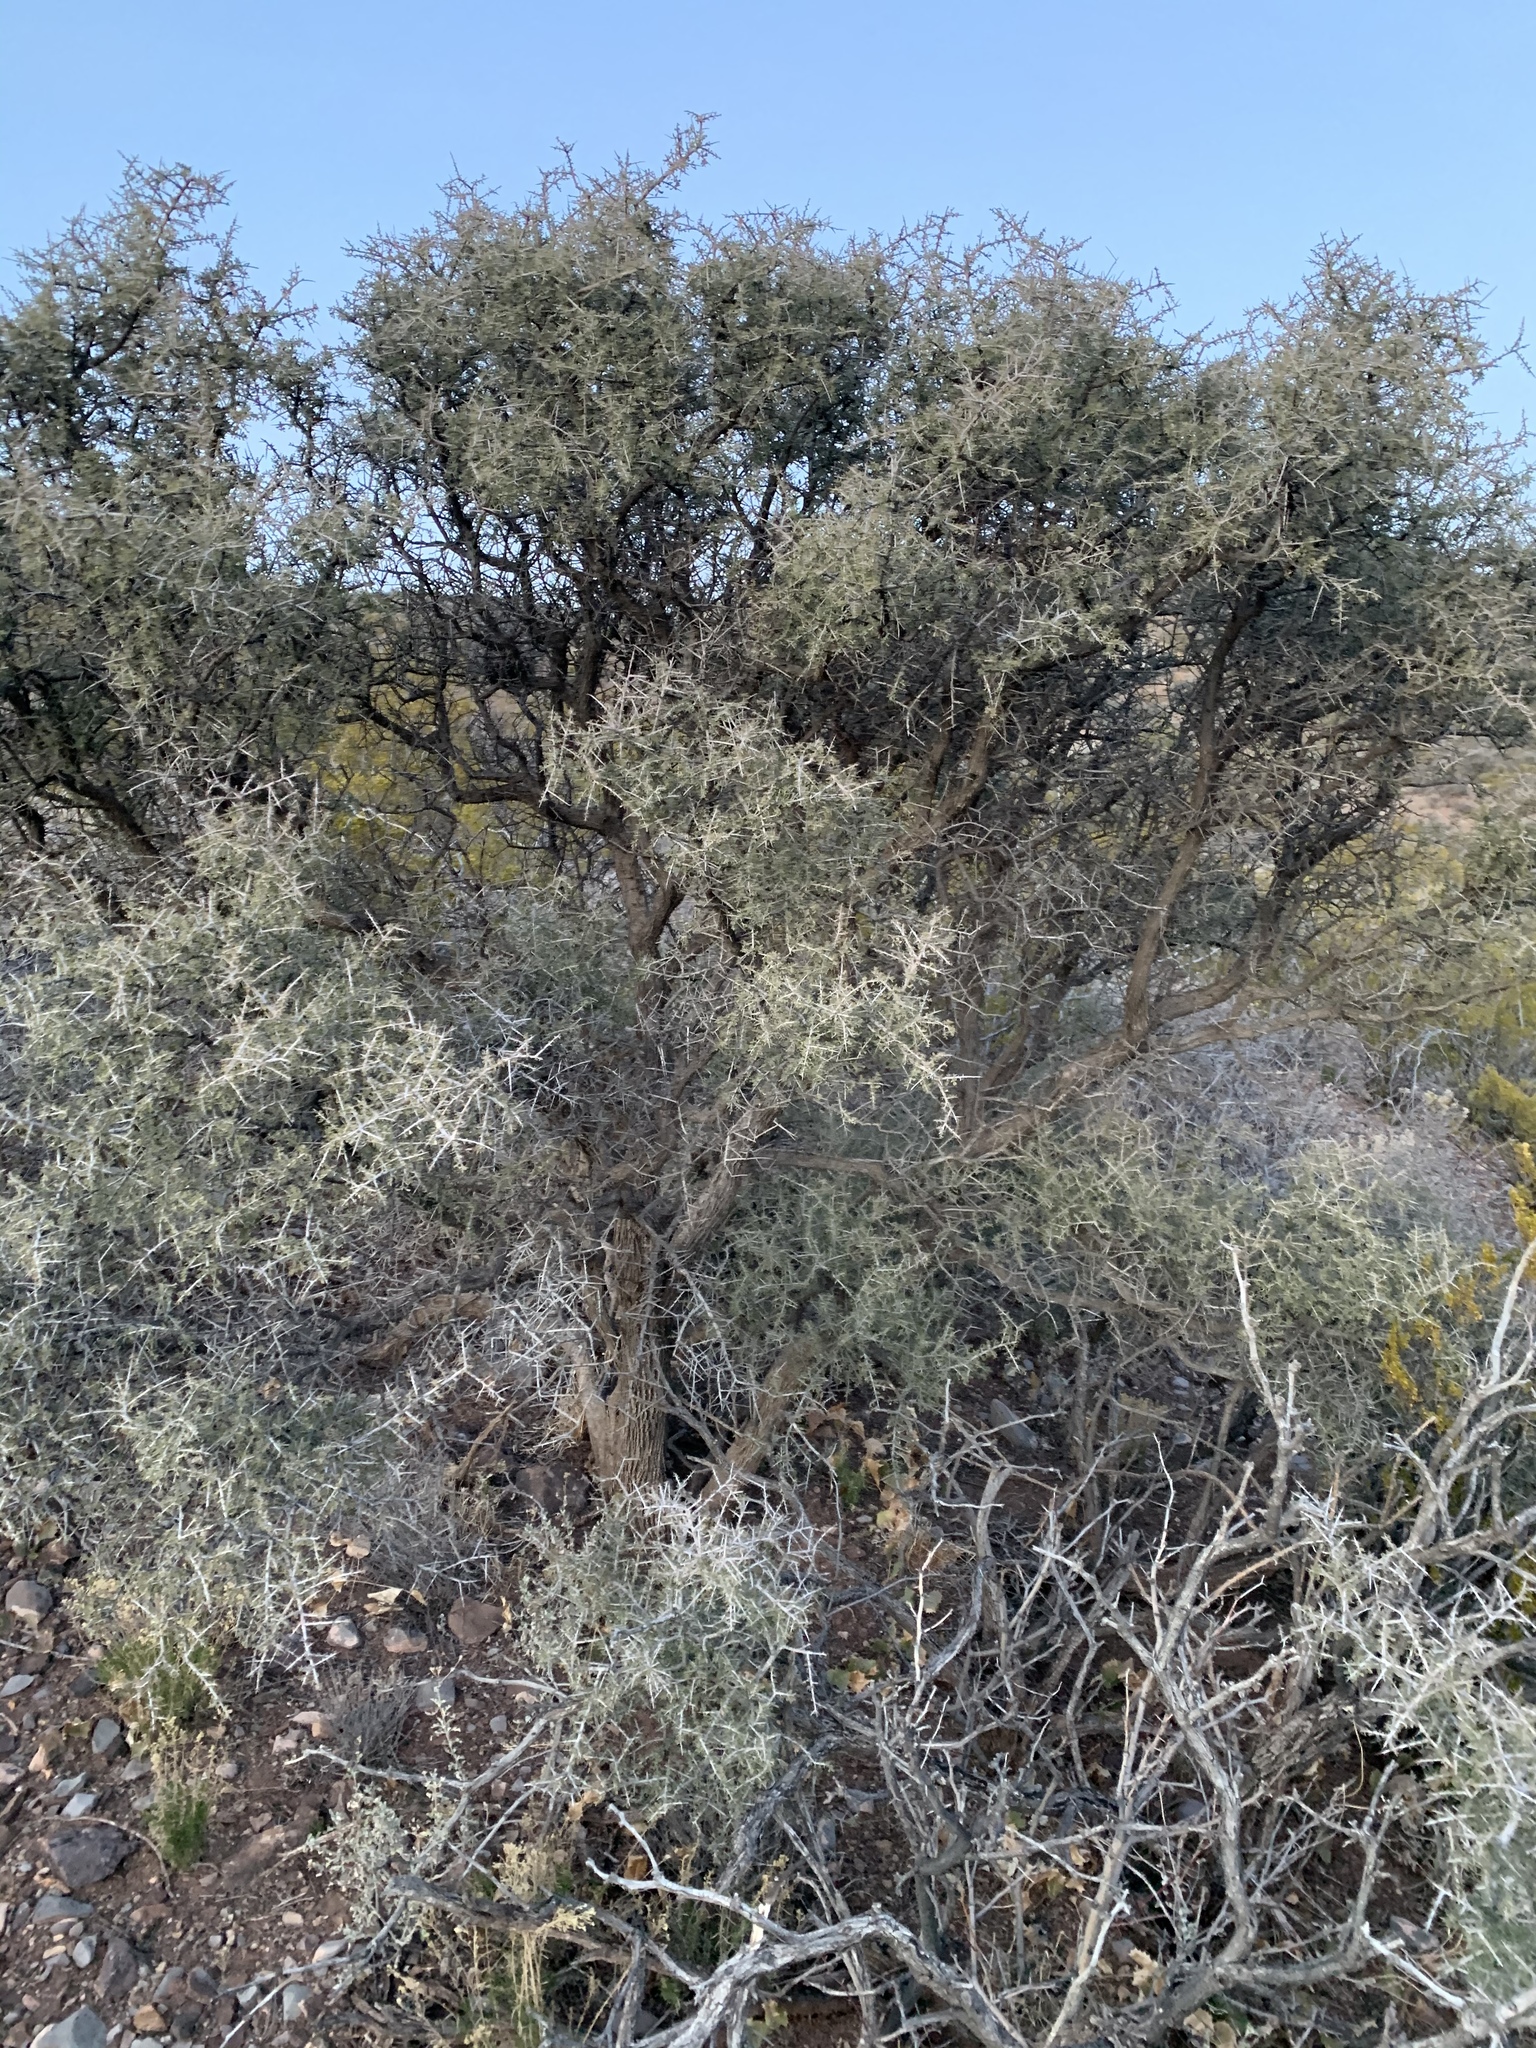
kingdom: Plantae
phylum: Tracheophyta
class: Magnoliopsida
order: Rosales
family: Rhamnaceae
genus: Condalia
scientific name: Condalia warnockii
